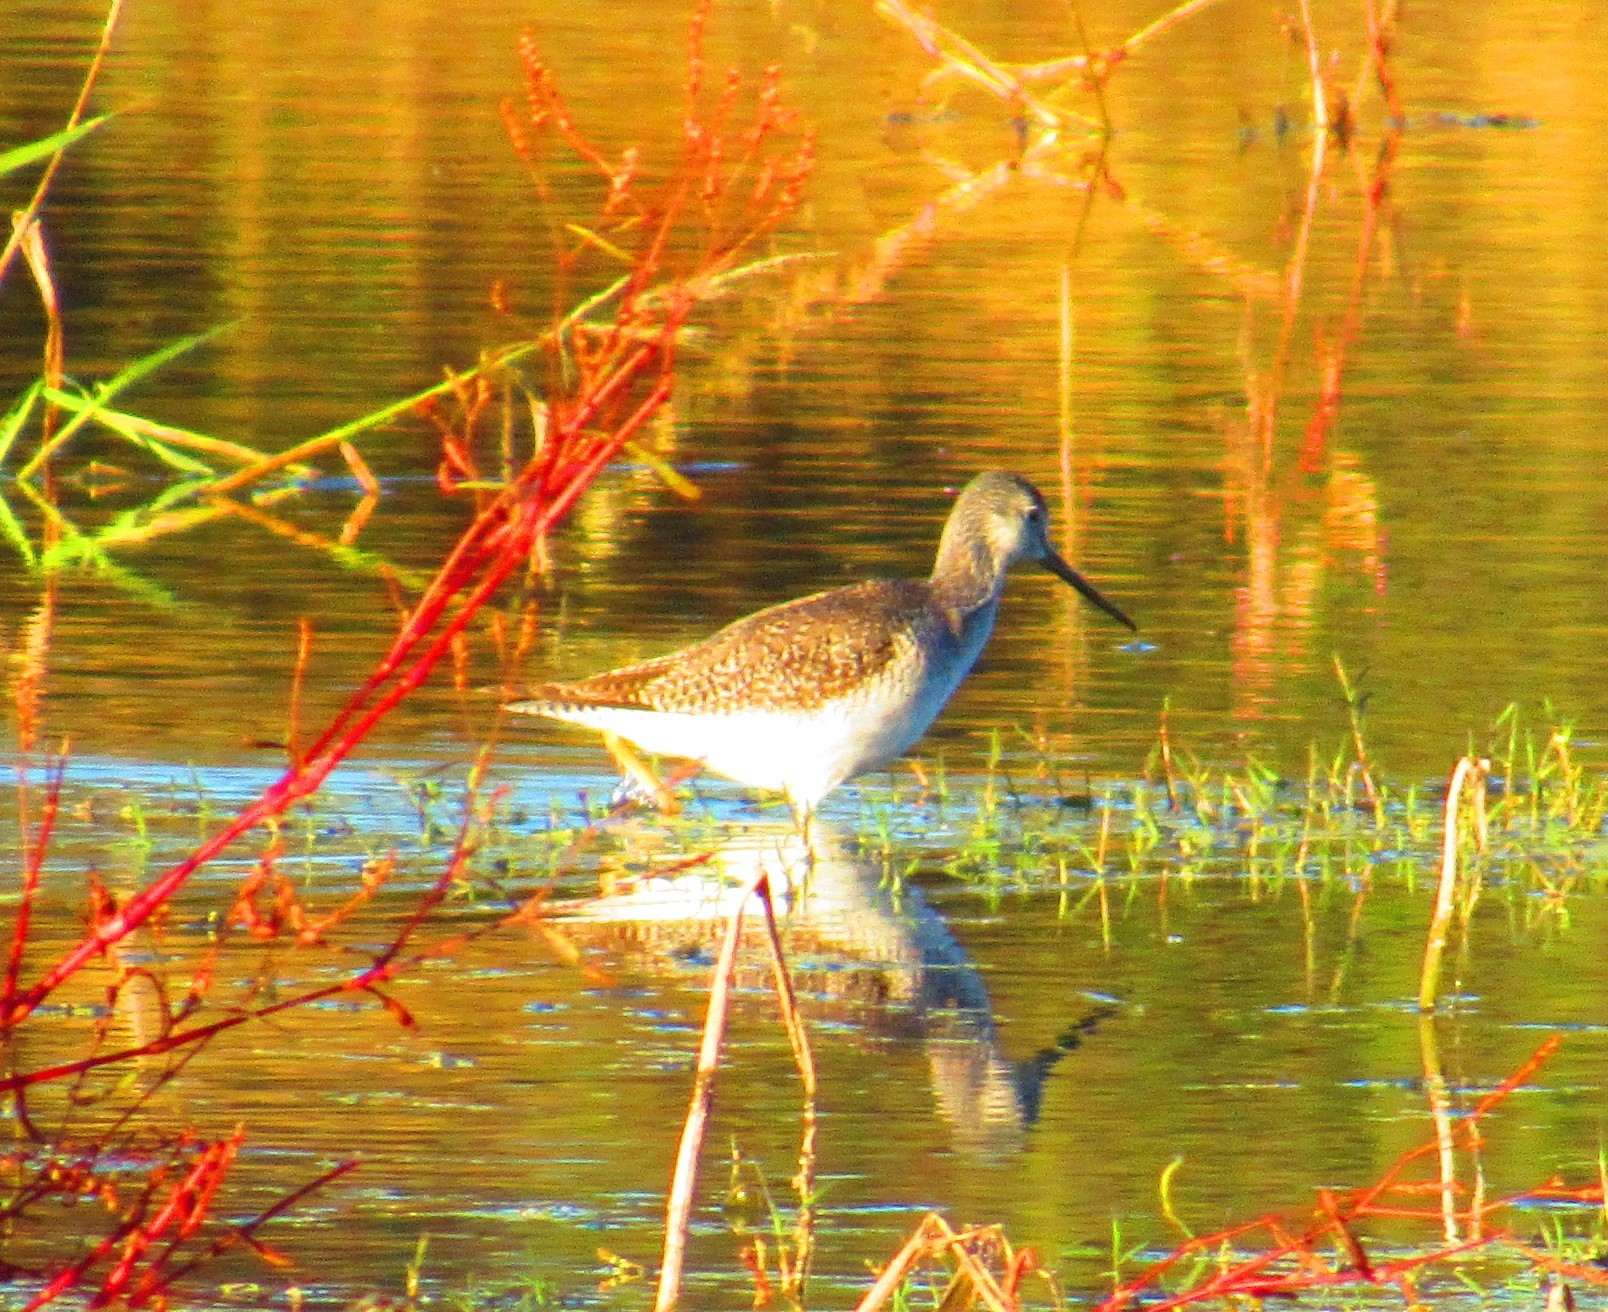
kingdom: Animalia
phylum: Chordata
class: Aves
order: Charadriiformes
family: Scolopacidae
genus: Tringa
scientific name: Tringa melanoleuca
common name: Greater yellowlegs
